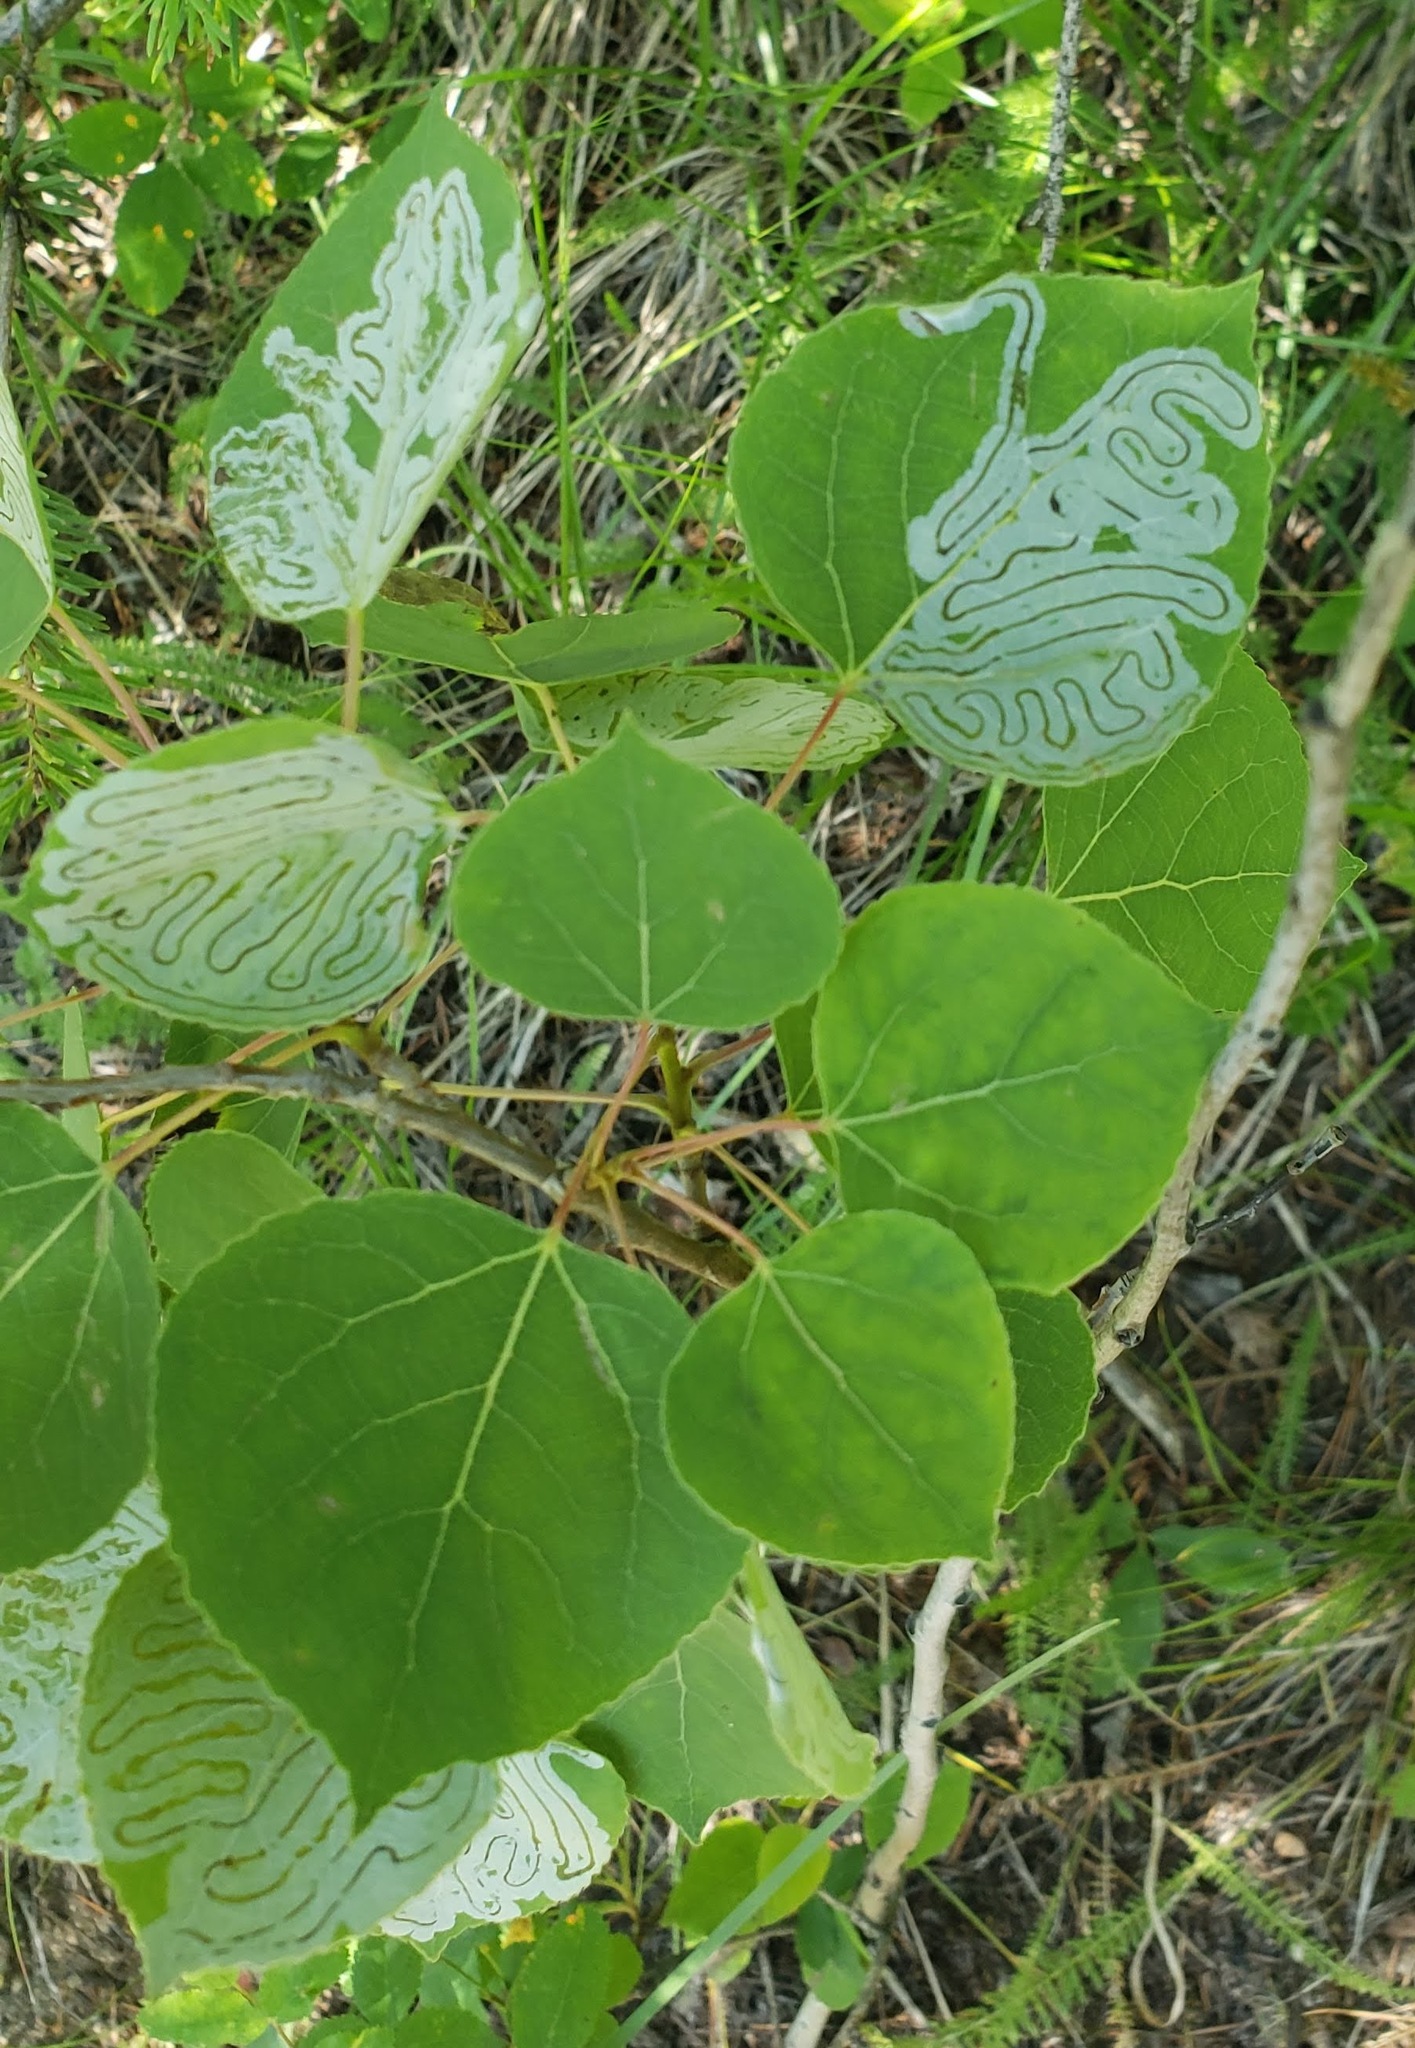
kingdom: Animalia
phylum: Arthropoda
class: Insecta
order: Lepidoptera
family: Gracillariidae
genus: Phyllocnistis
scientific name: Phyllocnistis populiella
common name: Aspen serpentine leafminer moth
